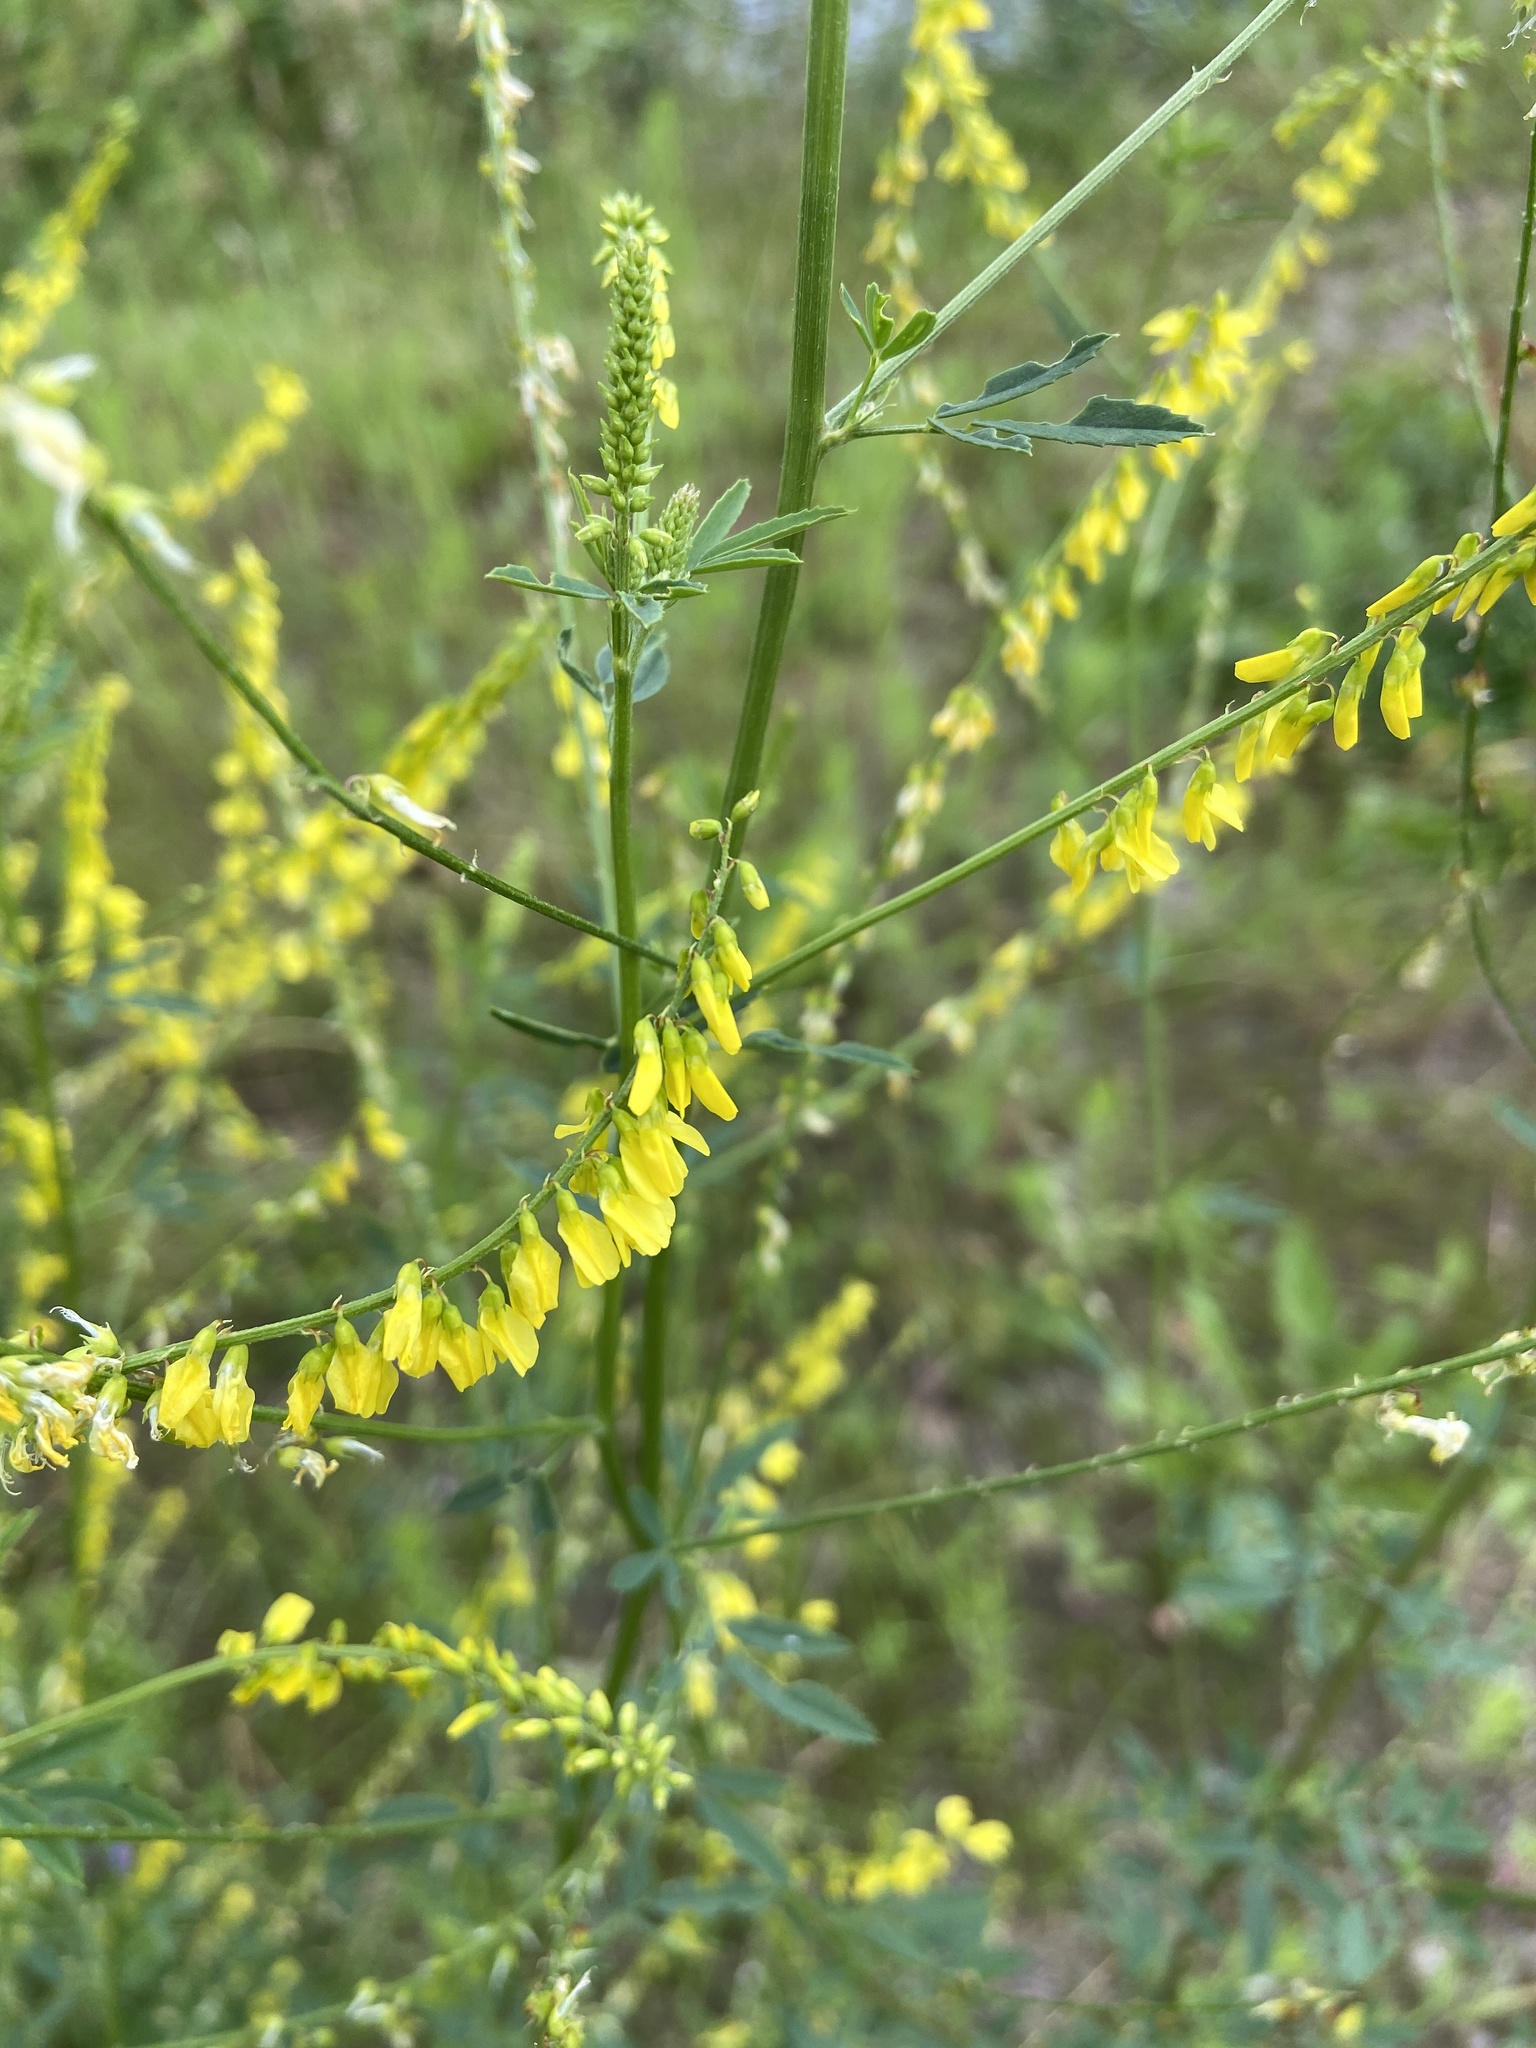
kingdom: Plantae
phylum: Tracheophyta
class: Magnoliopsida
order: Fabales
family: Fabaceae
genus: Melilotus
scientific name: Melilotus officinalis
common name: Sweetclover
